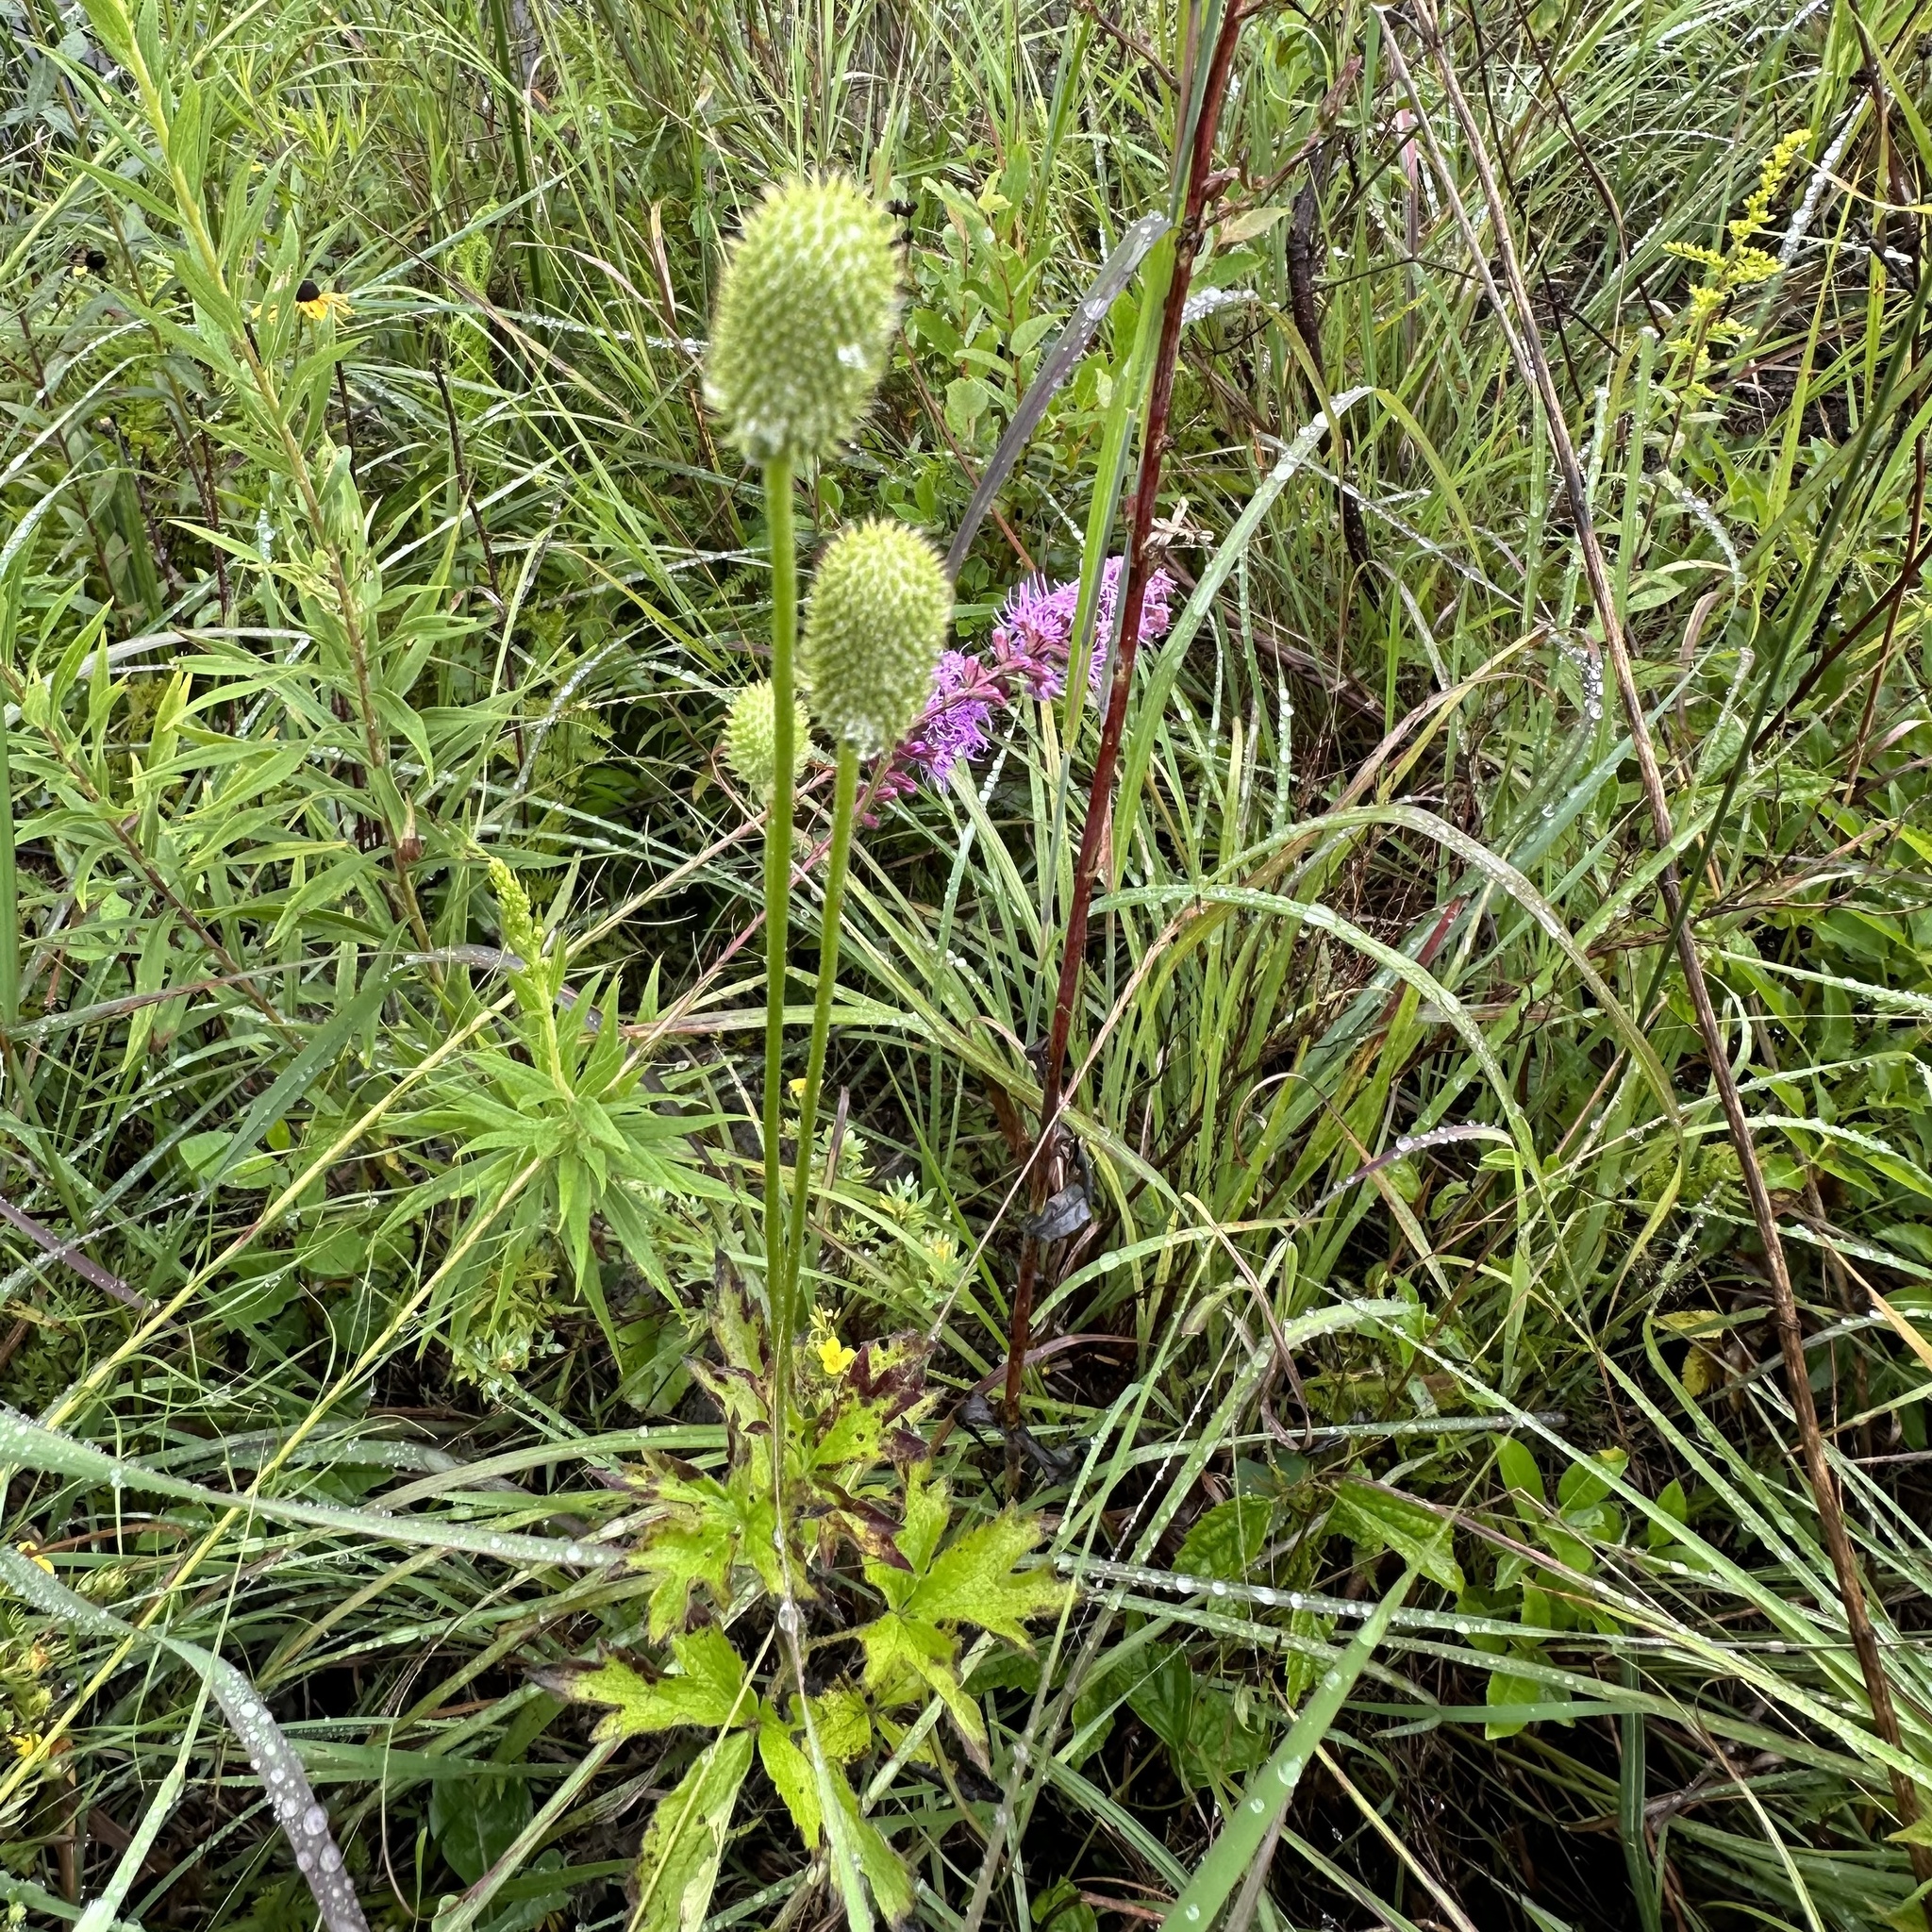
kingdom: Plantae
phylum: Tracheophyta
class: Magnoliopsida
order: Ranunculales
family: Ranunculaceae
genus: Anemone
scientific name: Anemone virginiana
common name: Tall anemone
